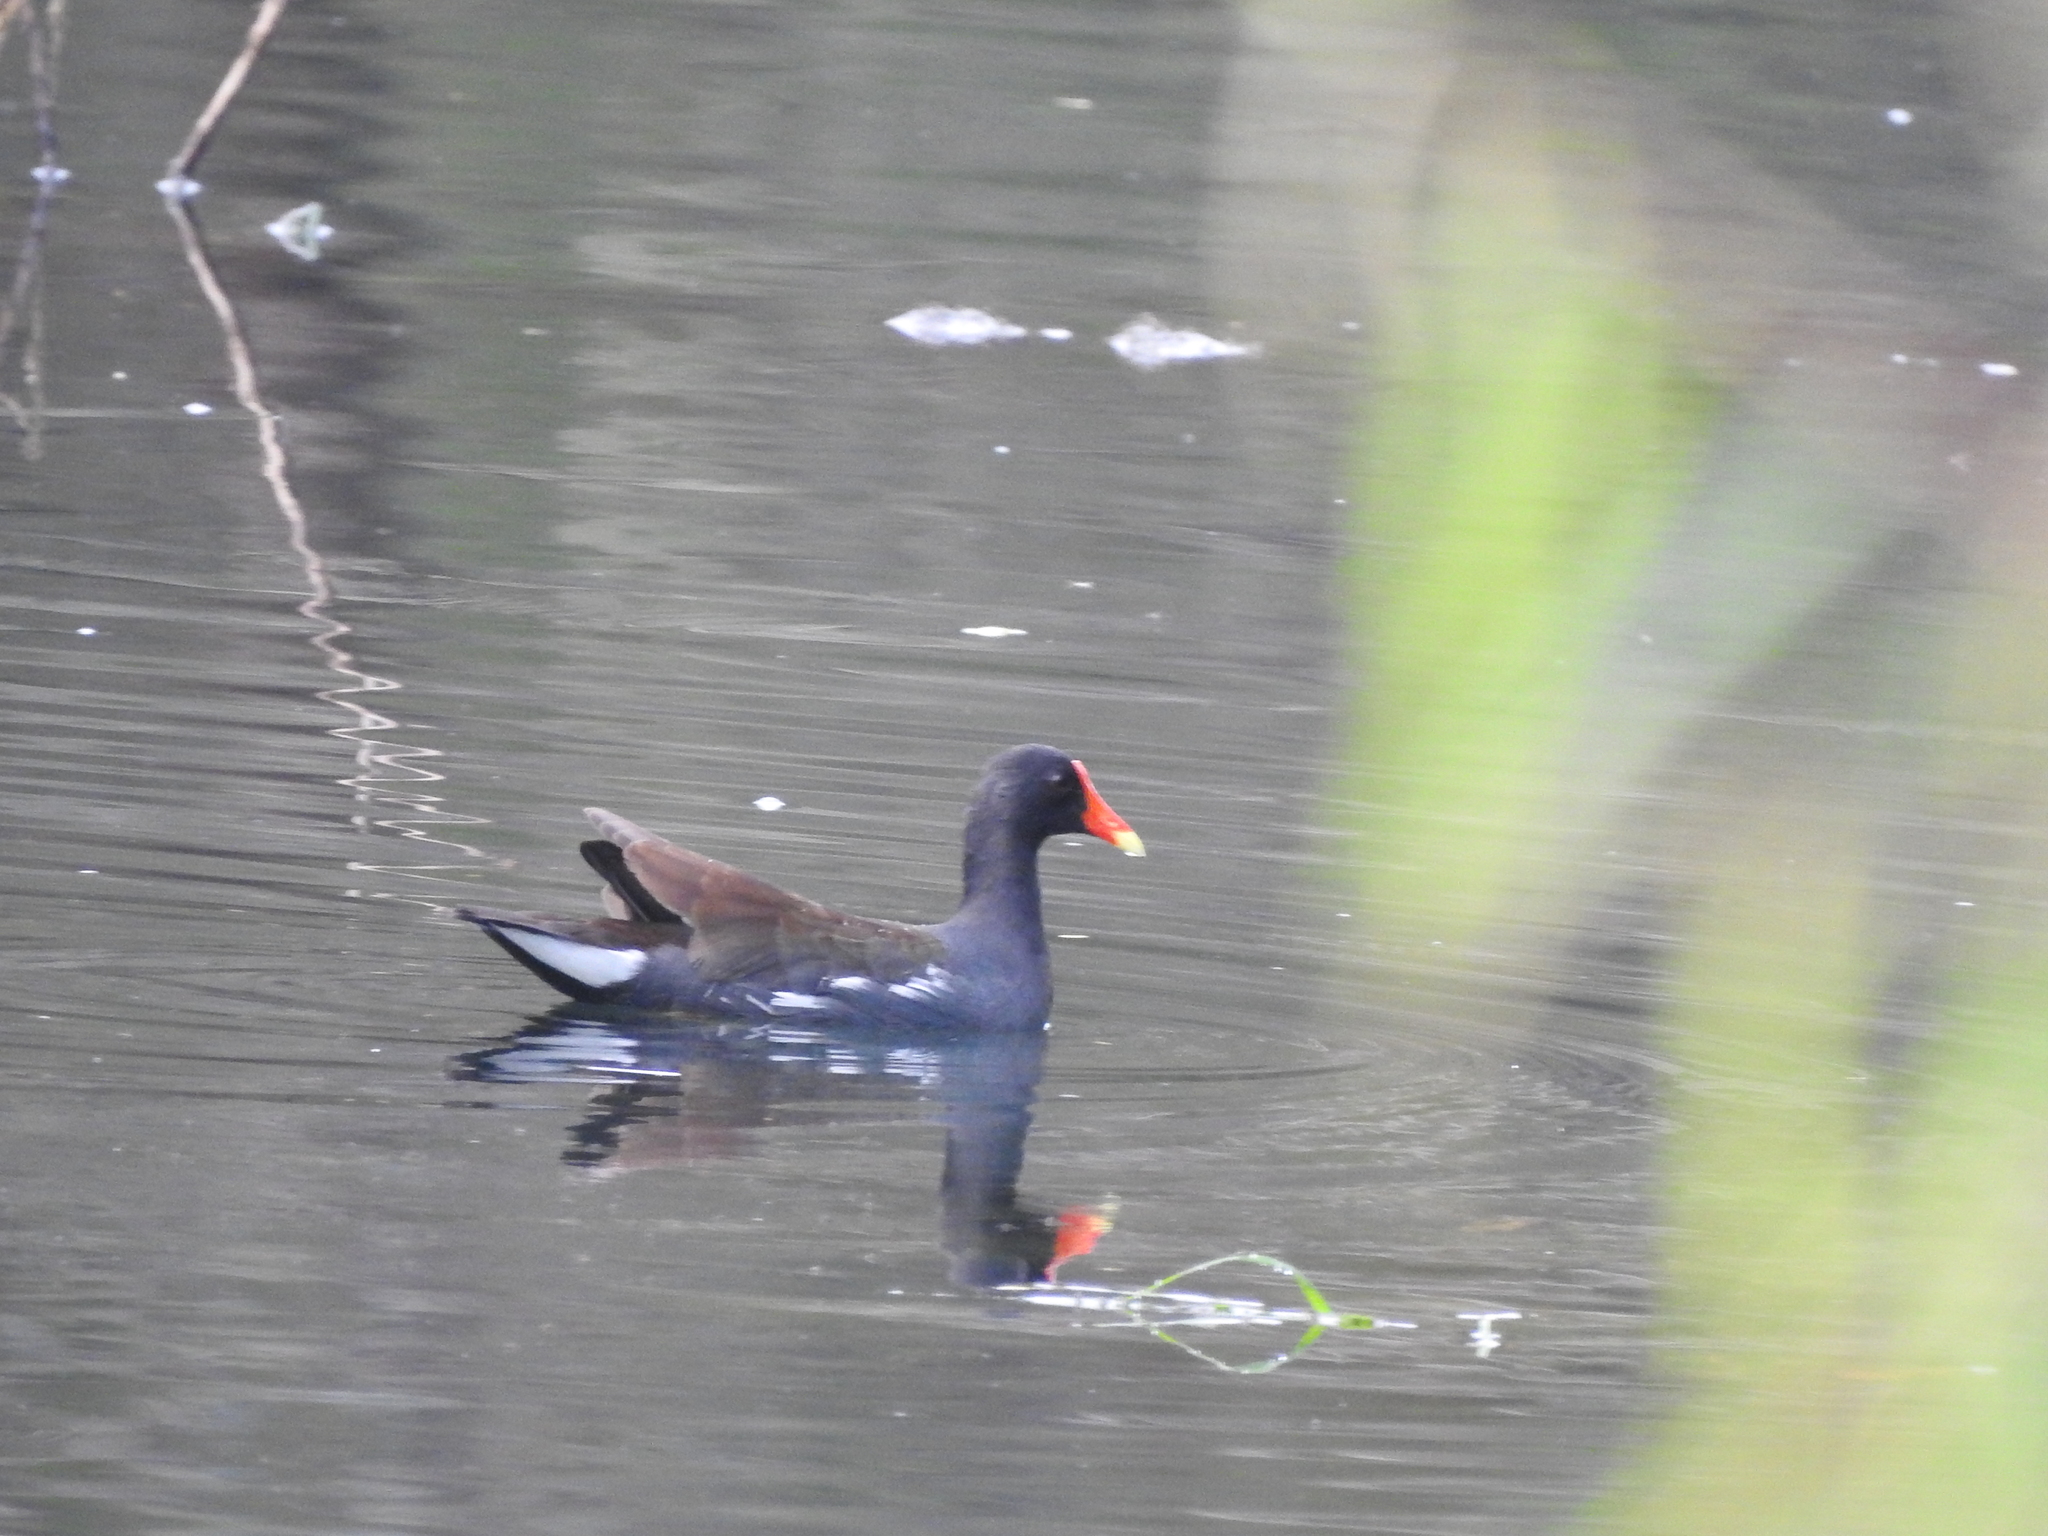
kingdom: Animalia
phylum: Chordata
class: Aves
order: Gruiformes
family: Rallidae
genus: Gallinula
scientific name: Gallinula chloropus
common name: Common moorhen
